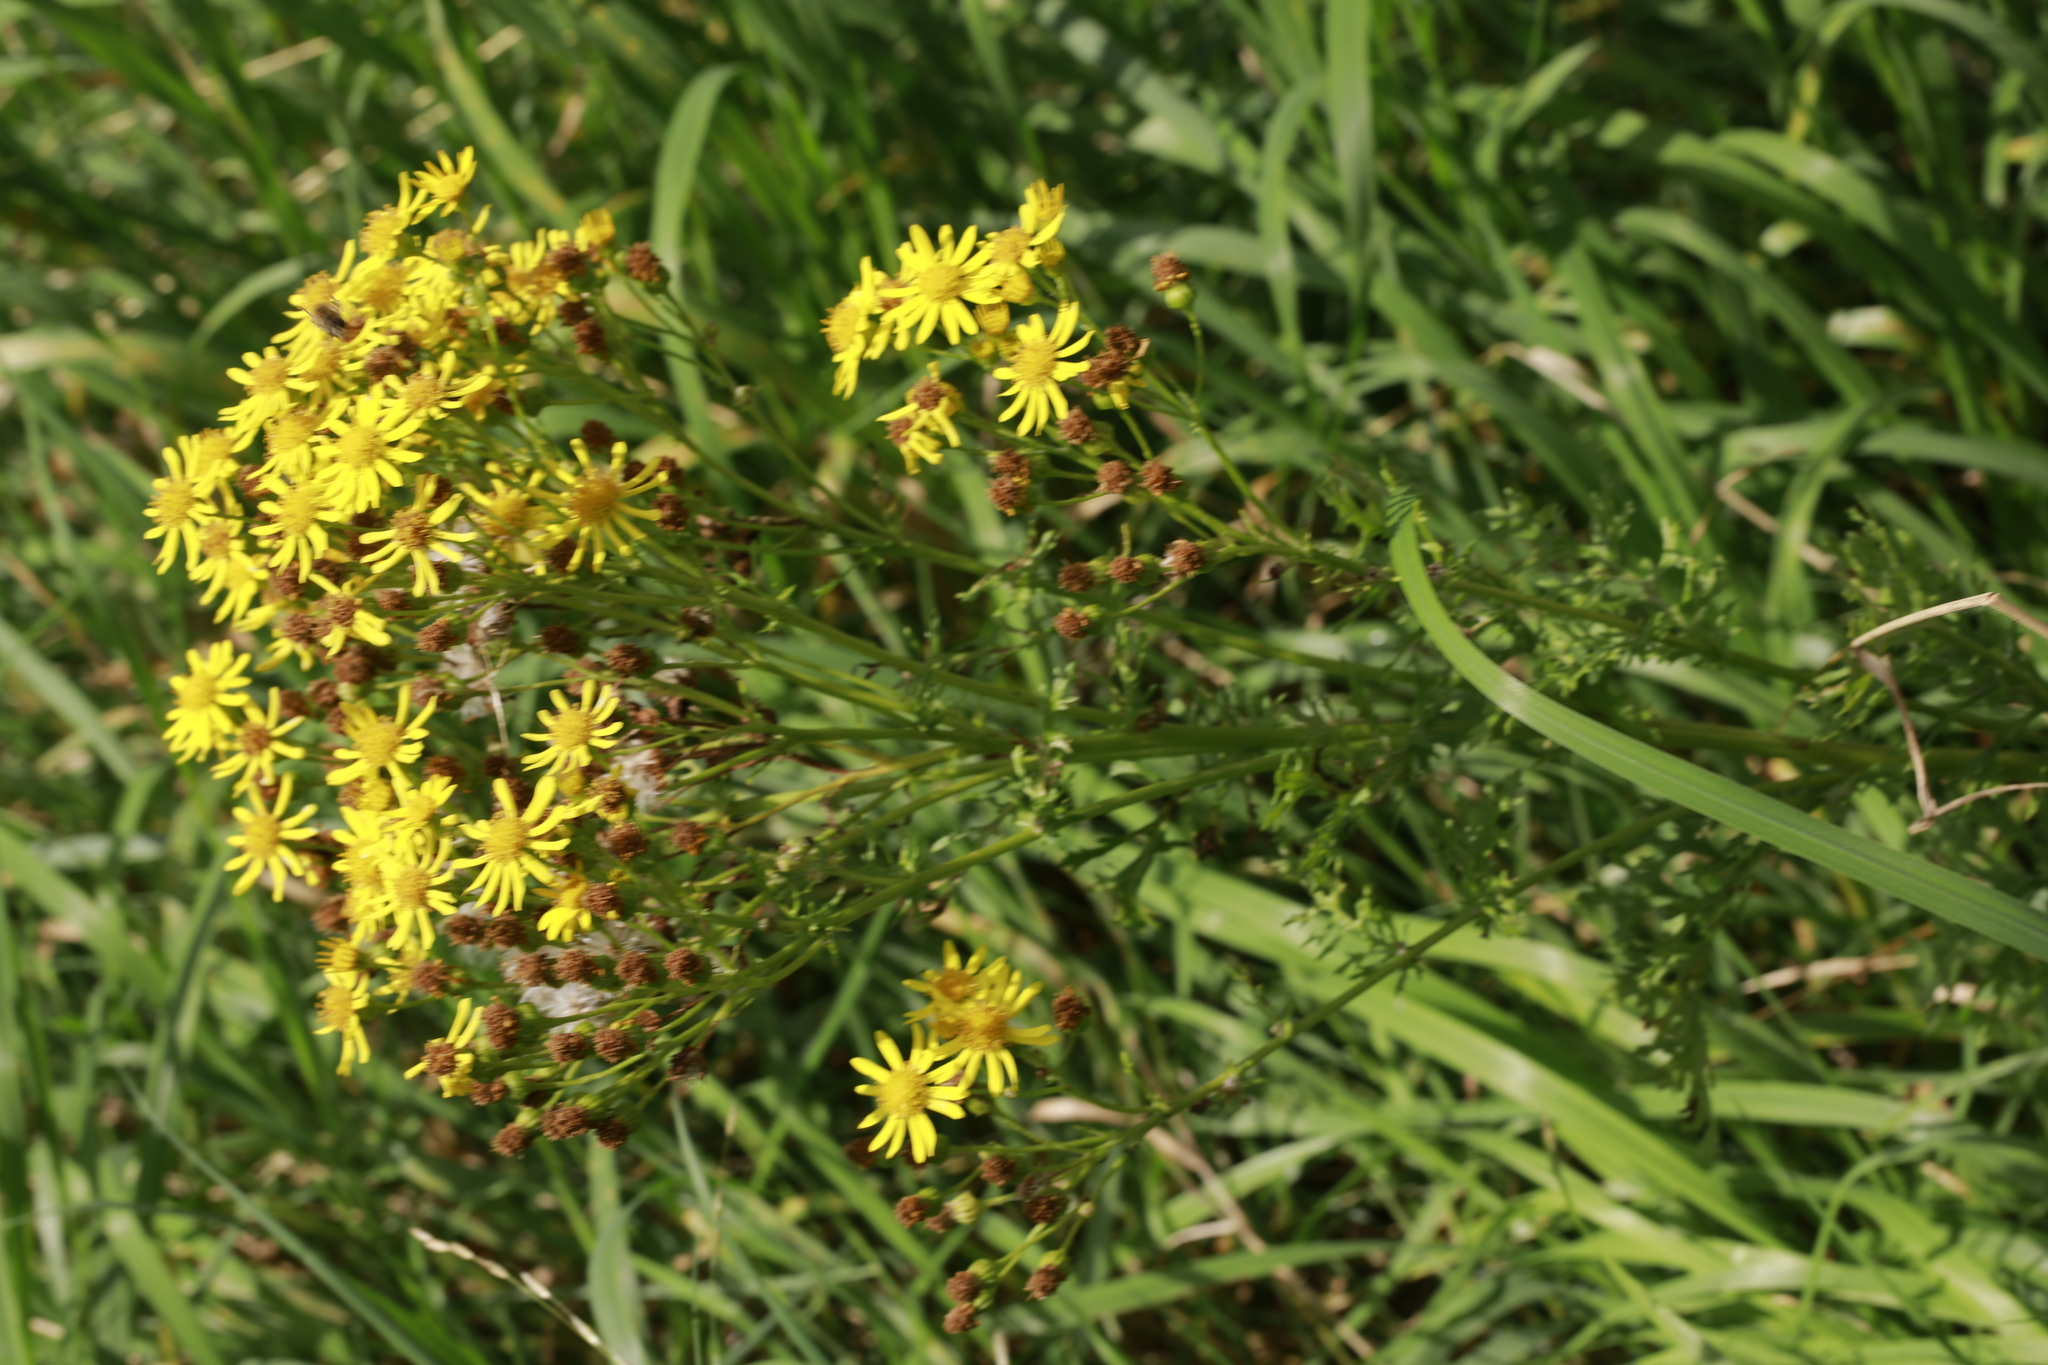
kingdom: Plantae
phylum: Tracheophyta
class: Magnoliopsida
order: Asterales
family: Asteraceae
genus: Jacobaea
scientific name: Jacobaea vulgaris
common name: Stinking willie
